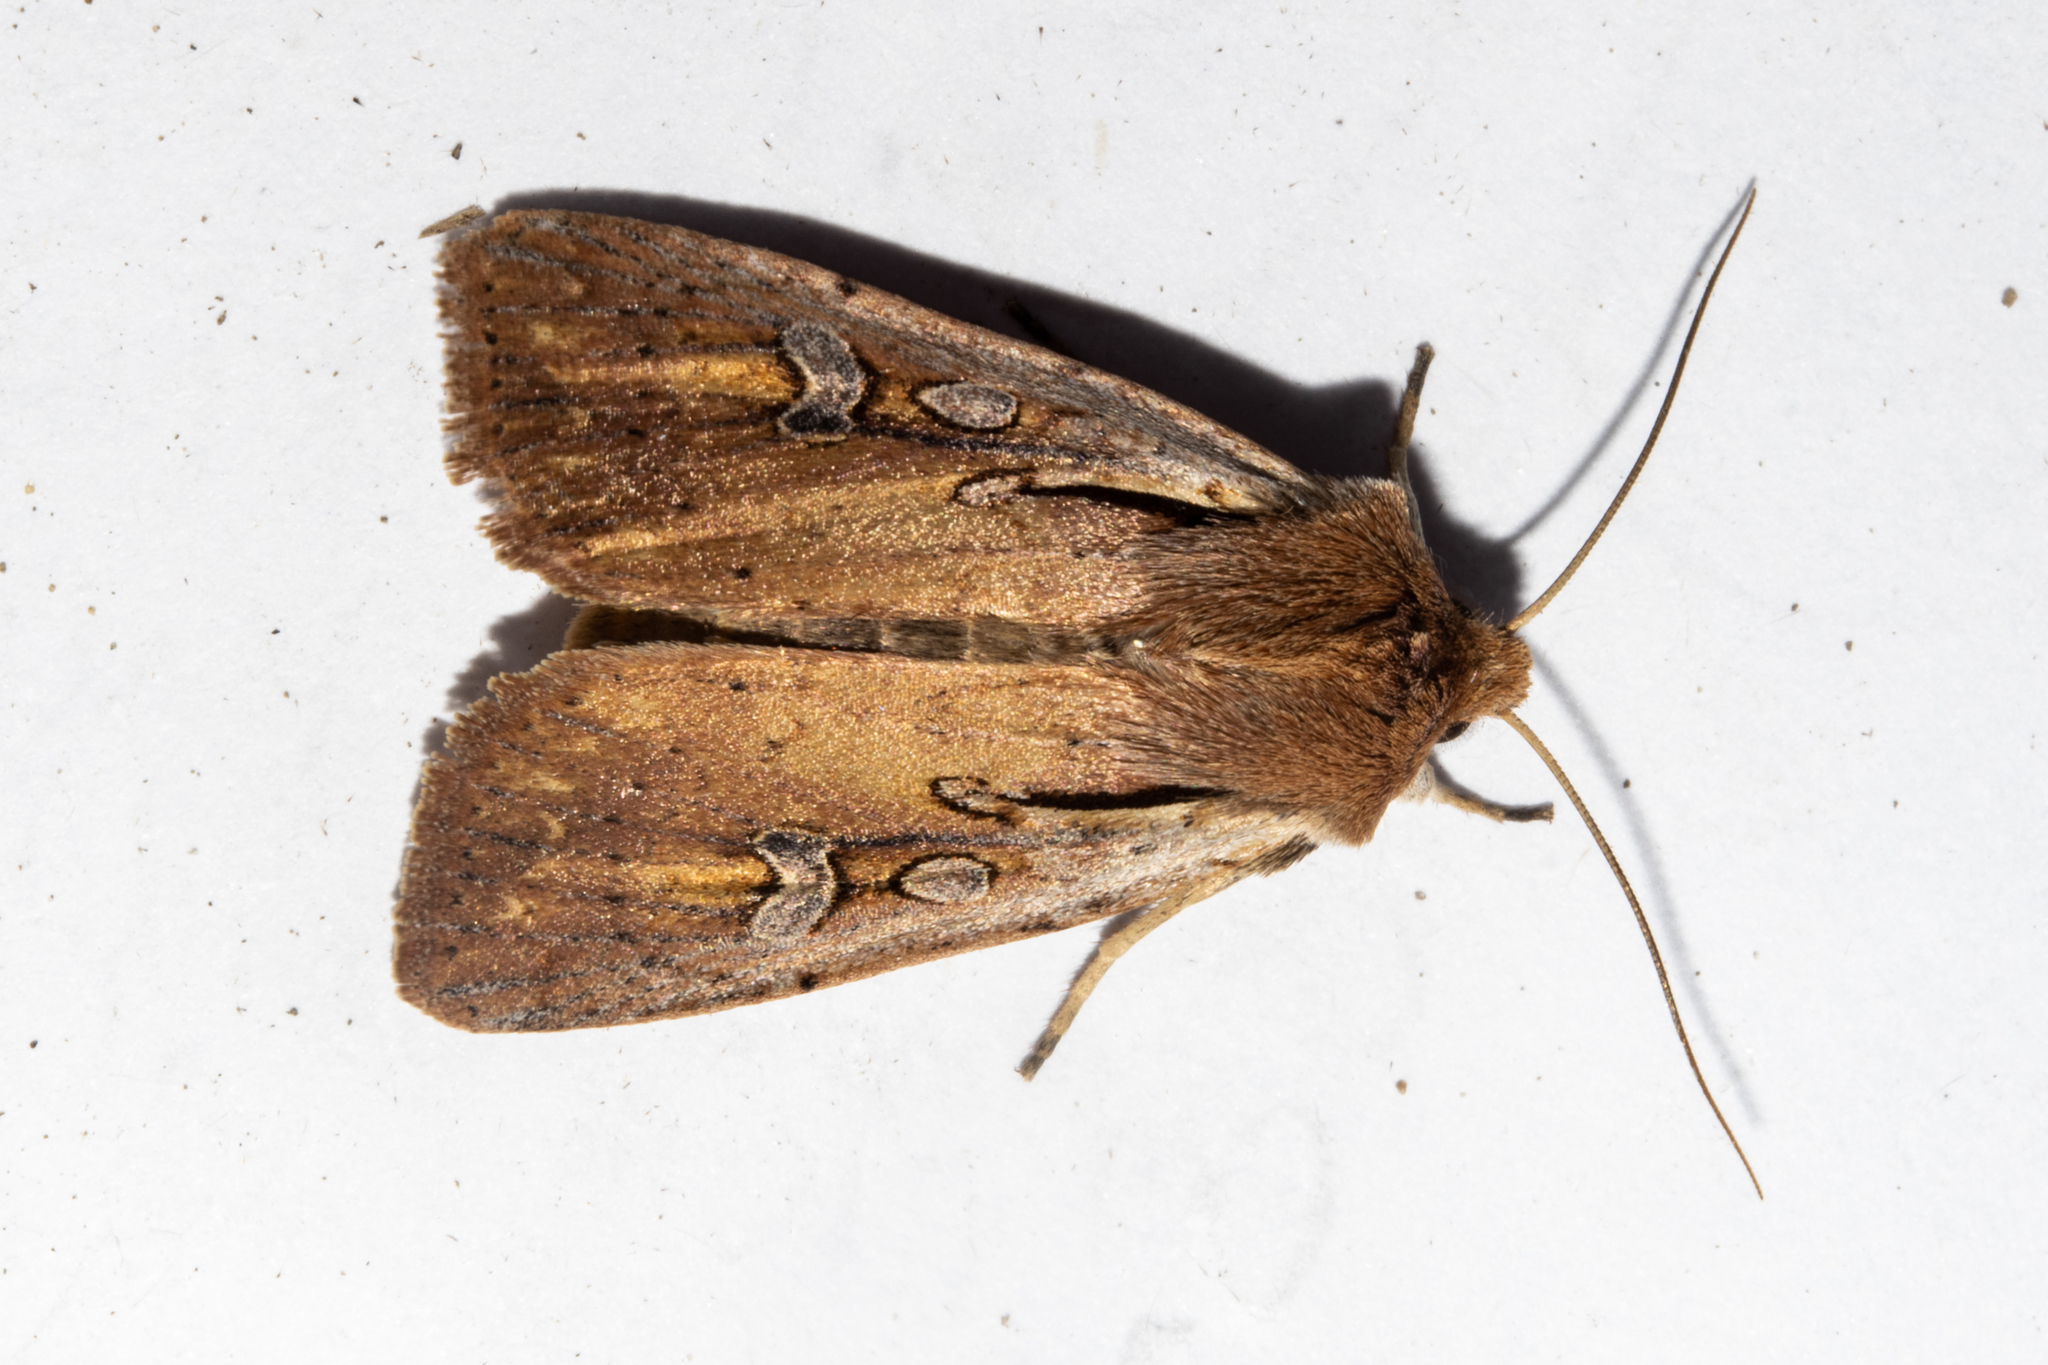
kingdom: Animalia
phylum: Arthropoda
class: Insecta
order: Lepidoptera
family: Noctuidae
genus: Ichneutica
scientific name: Ichneutica atristriga
